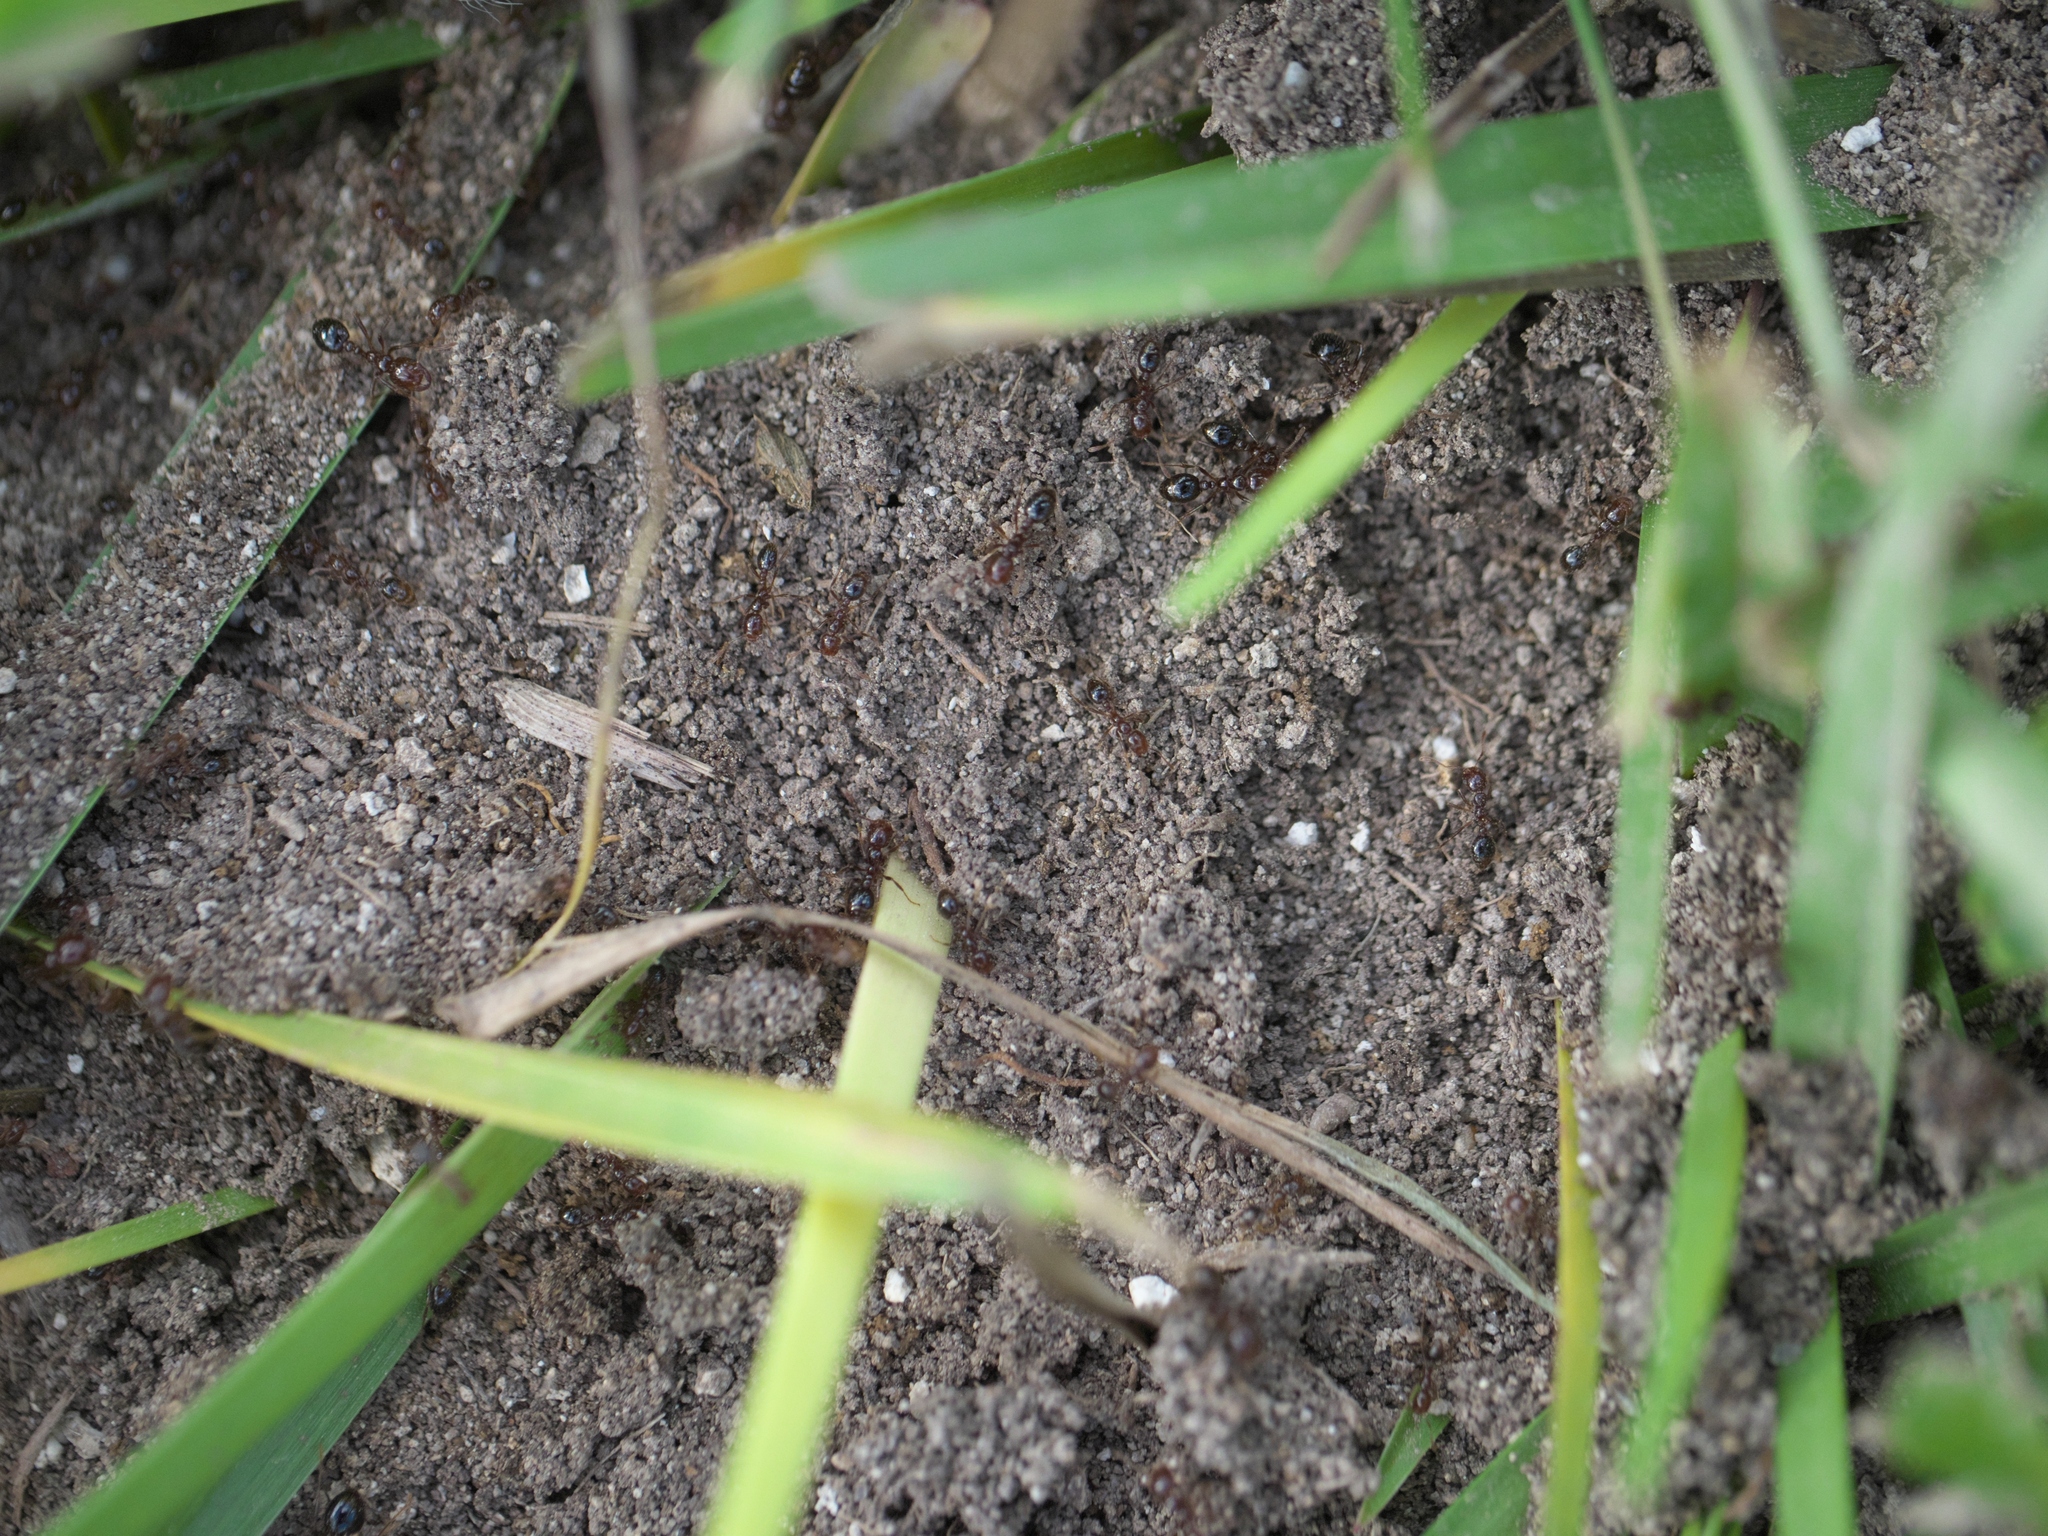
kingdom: Animalia
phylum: Arthropoda
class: Insecta
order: Hymenoptera
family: Formicidae
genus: Solenopsis
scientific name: Solenopsis invicta
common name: Red imported fire ant
